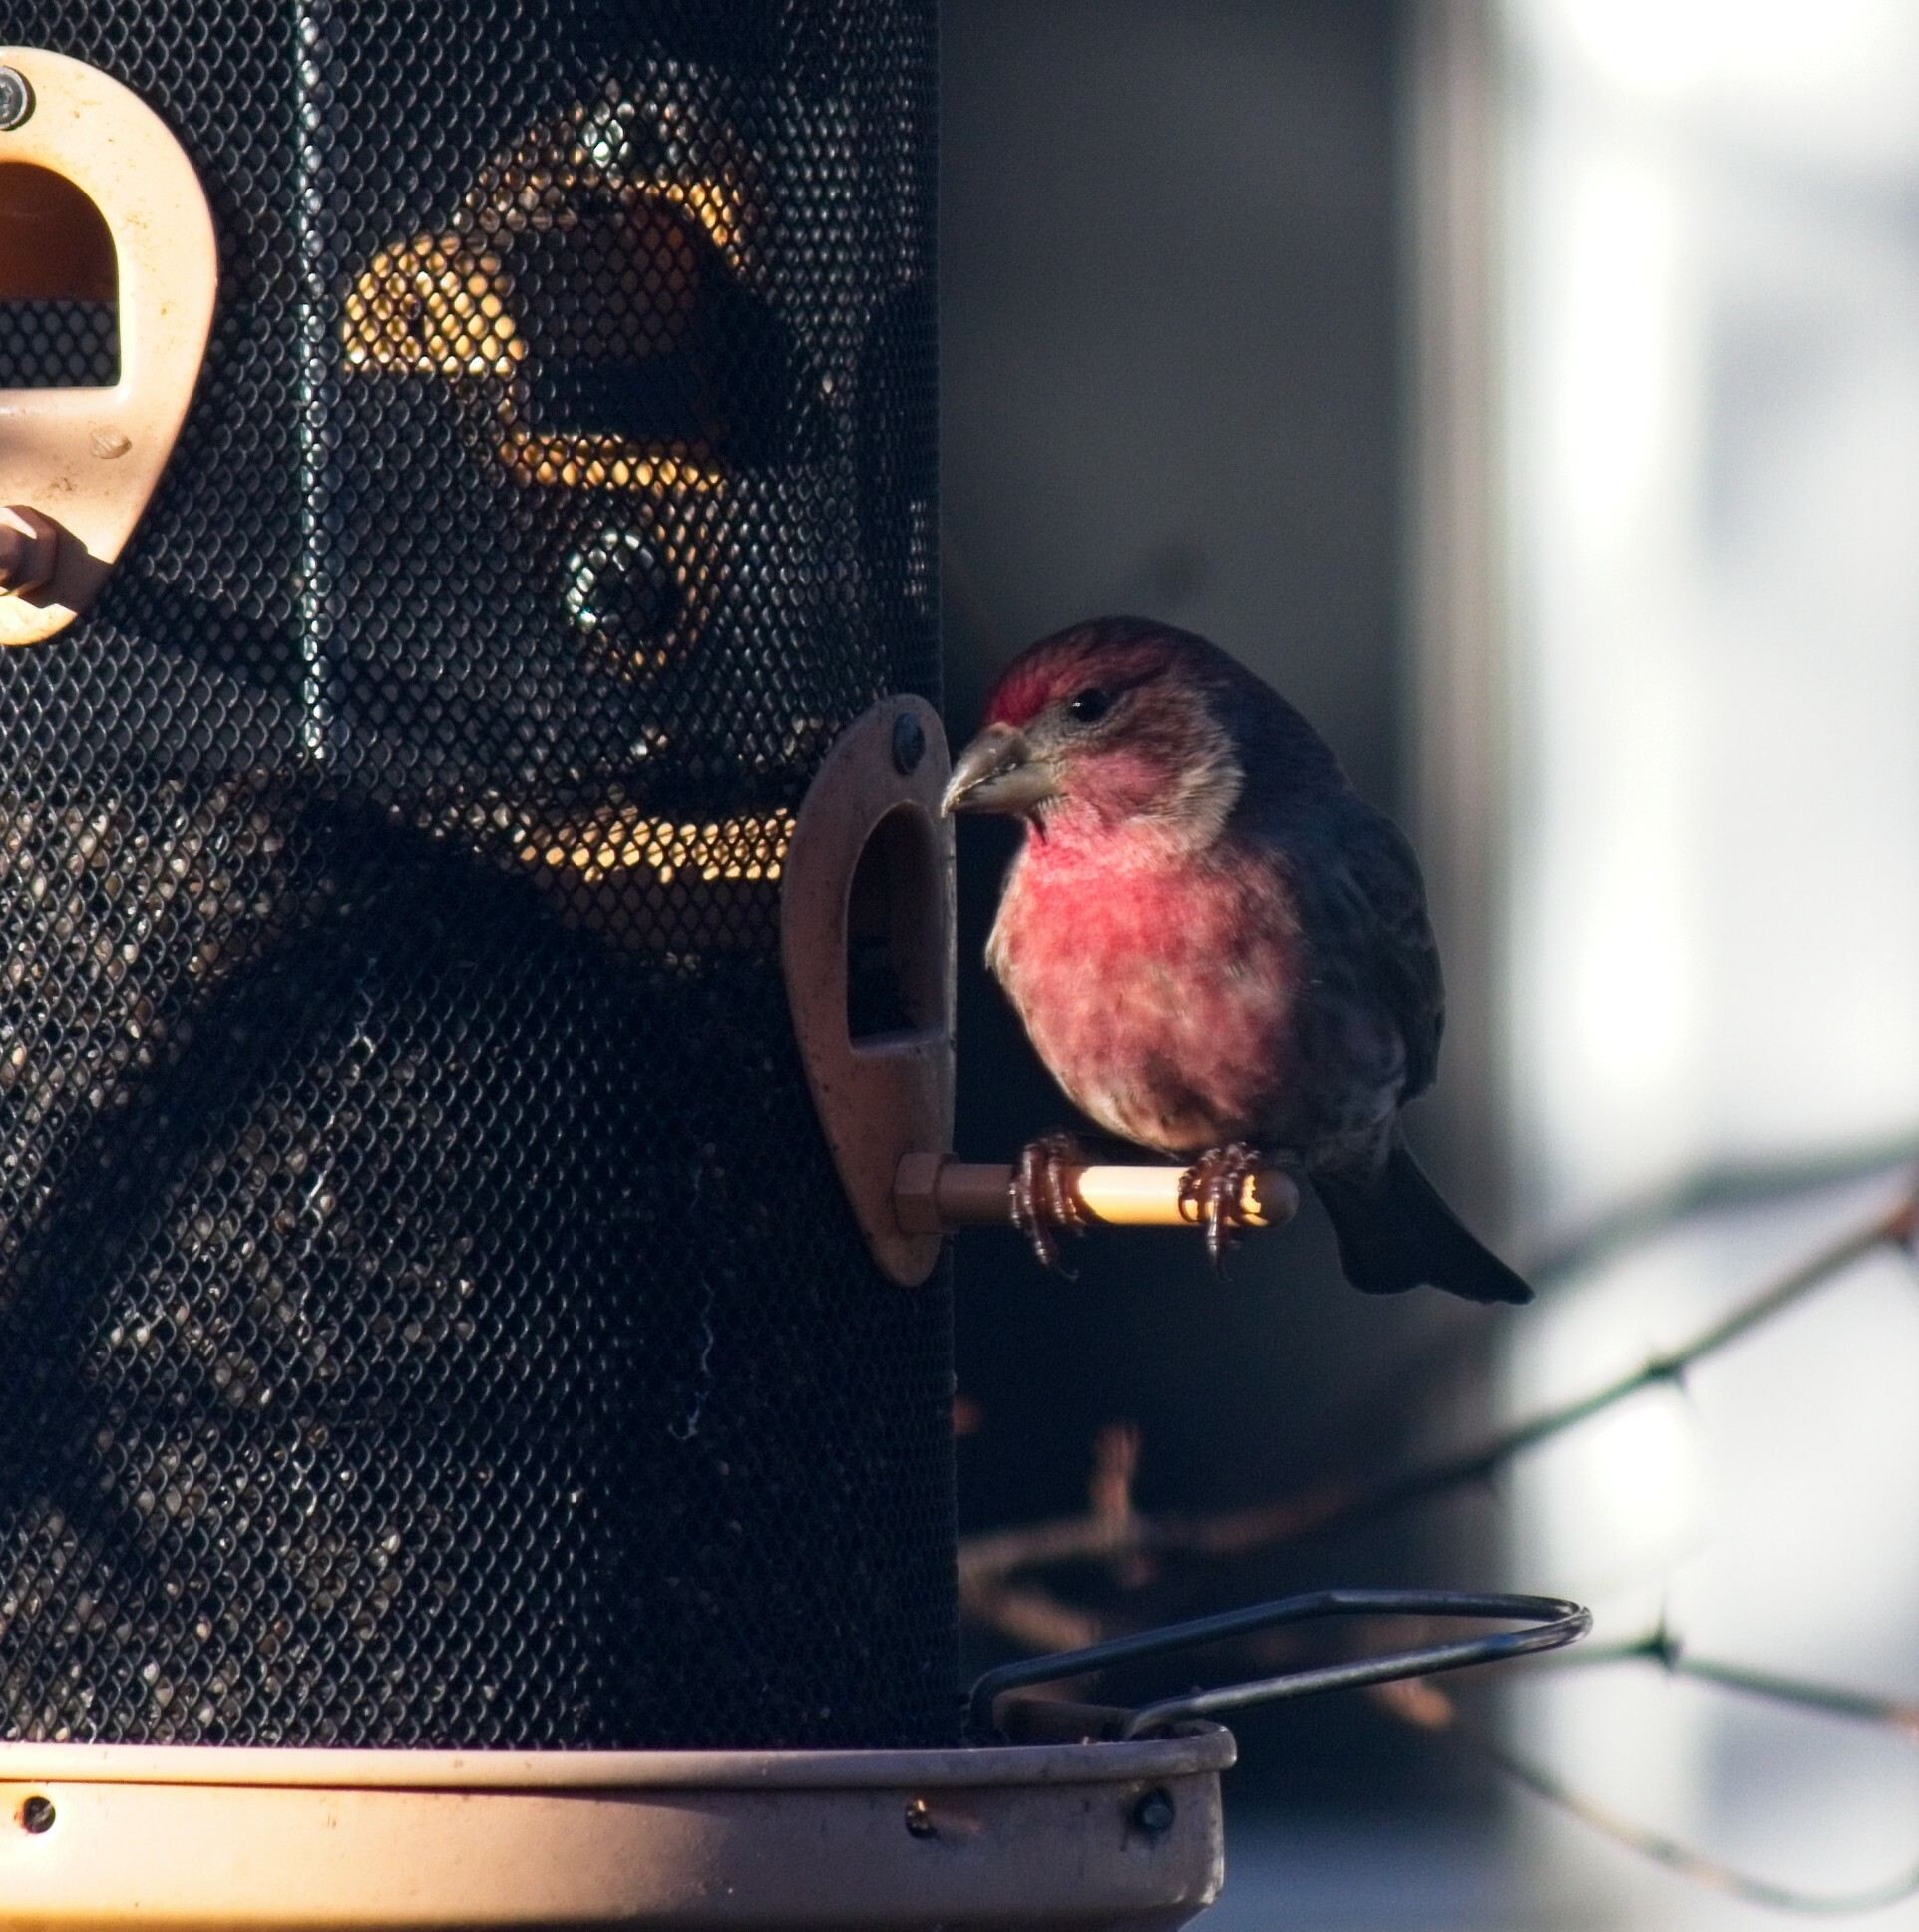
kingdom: Animalia
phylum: Chordata
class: Aves
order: Passeriformes
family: Fringillidae
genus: Haemorhous
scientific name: Haemorhous mexicanus
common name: House finch
